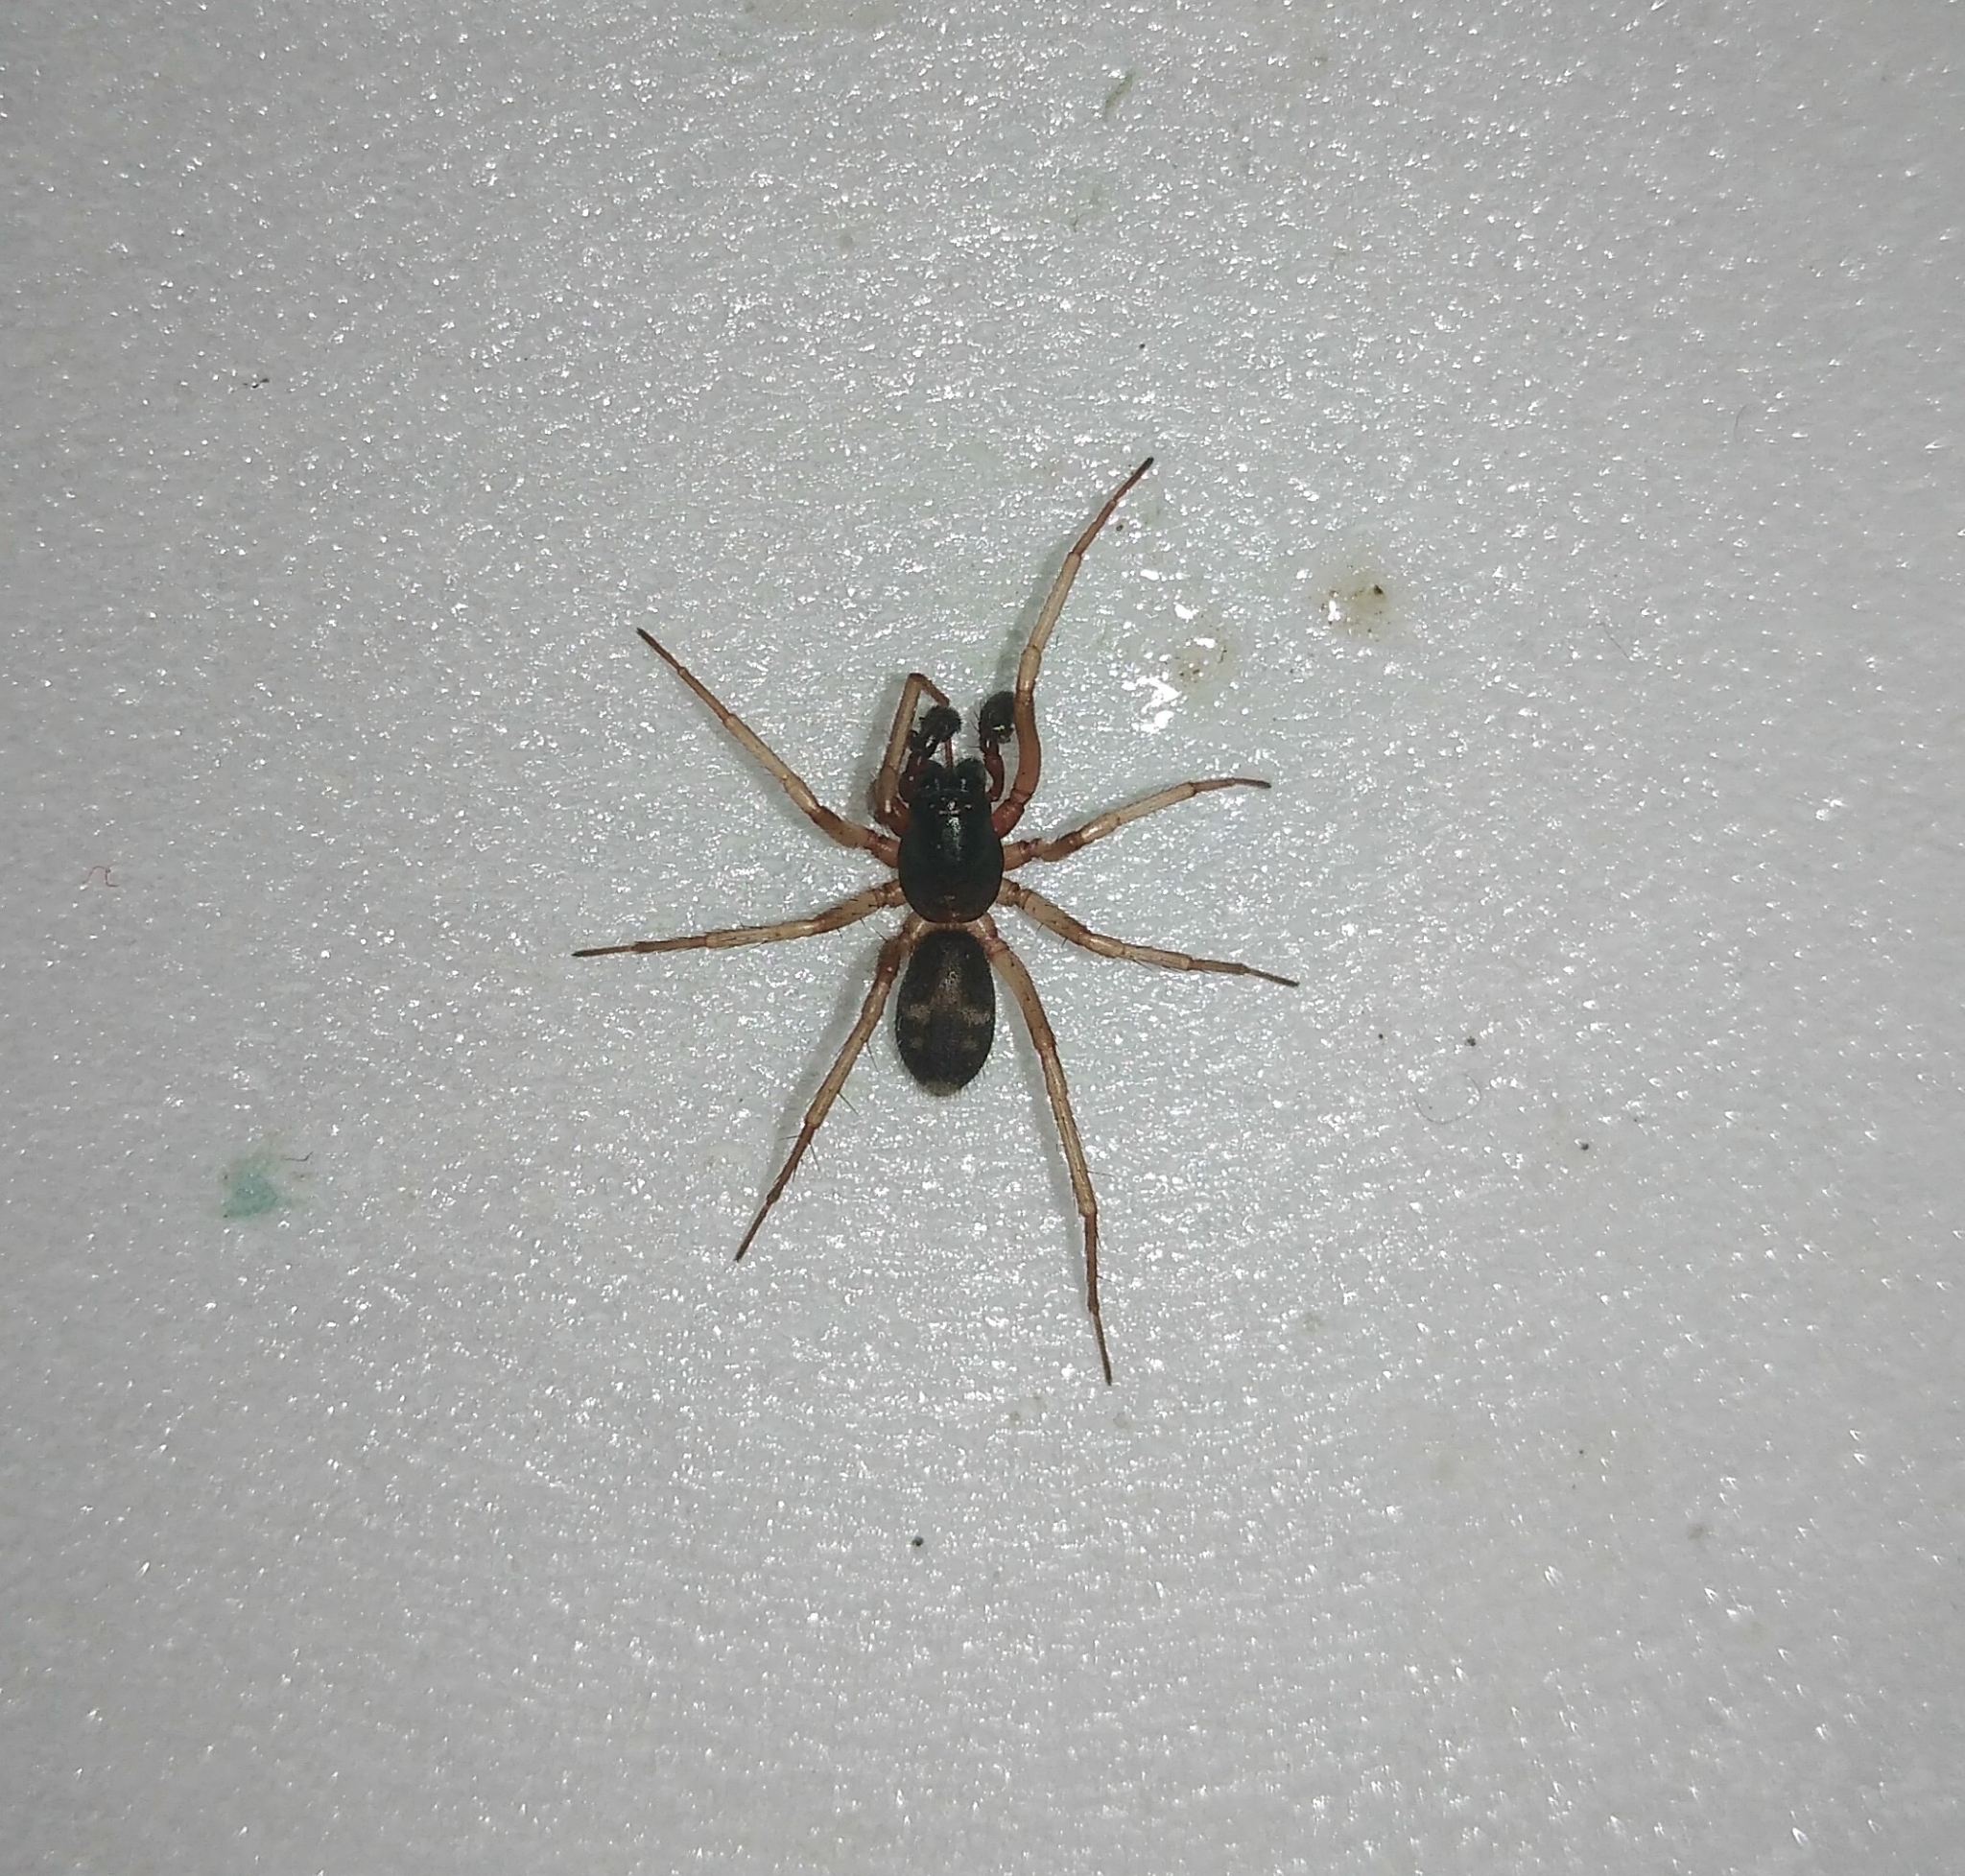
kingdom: Animalia
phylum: Arthropoda
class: Arachnida
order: Araneae
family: Corinnidae
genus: Falconina
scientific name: Falconina gracilis
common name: Antmimic spider
